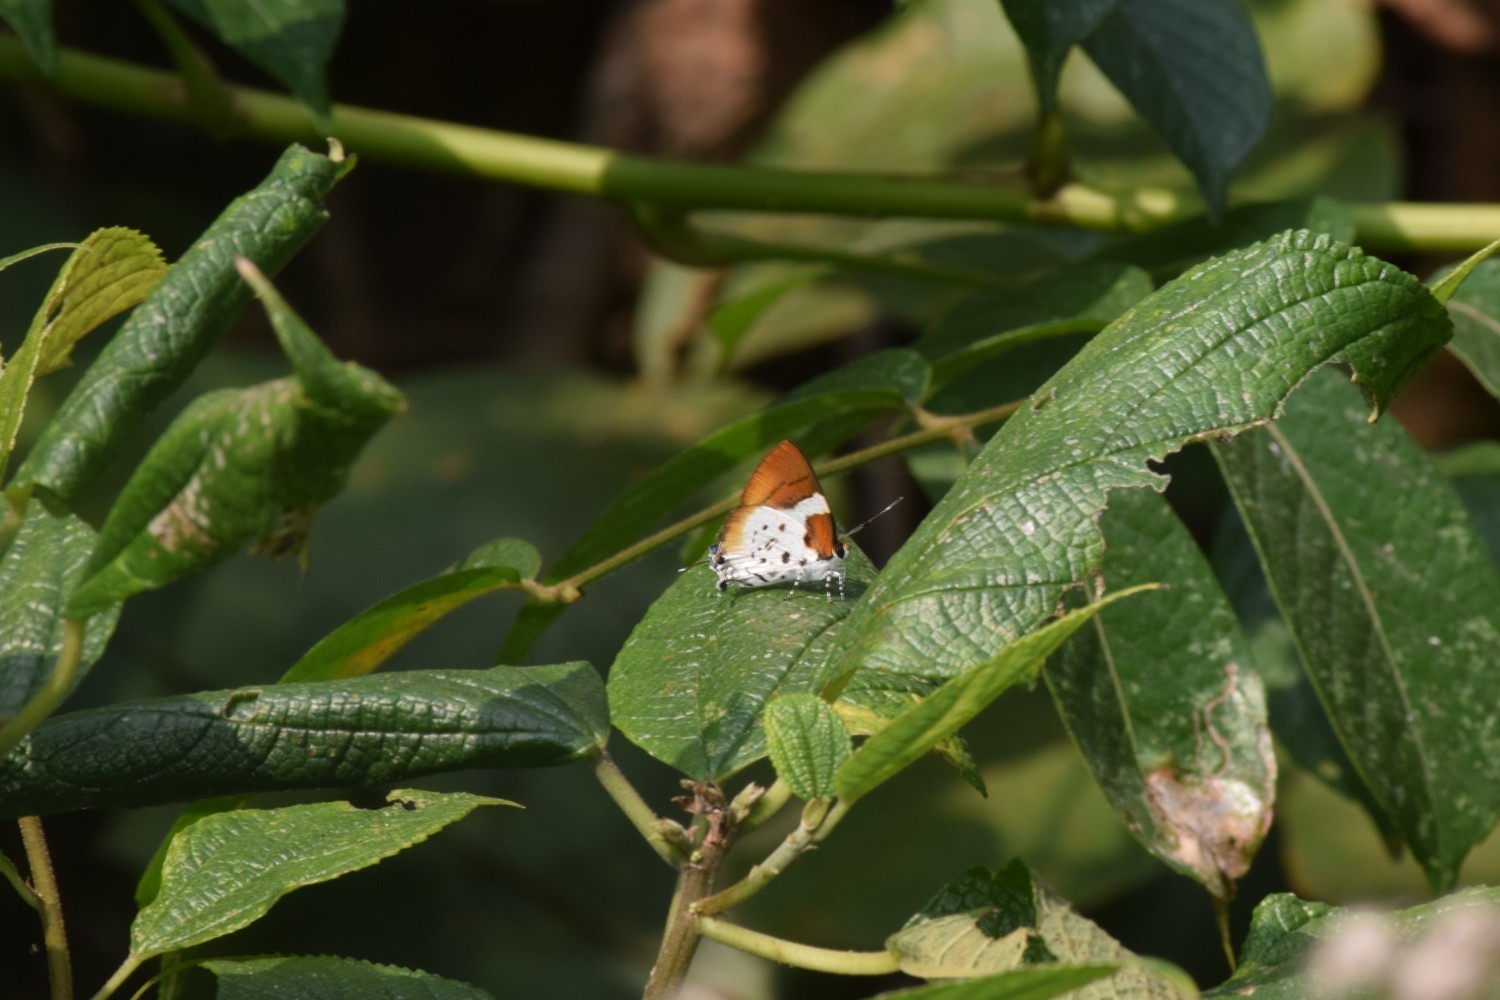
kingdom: Animalia
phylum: Arthropoda
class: Insecta
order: Lepidoptera
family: Lycaenidae
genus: Araotes
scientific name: Araotes lapithis
